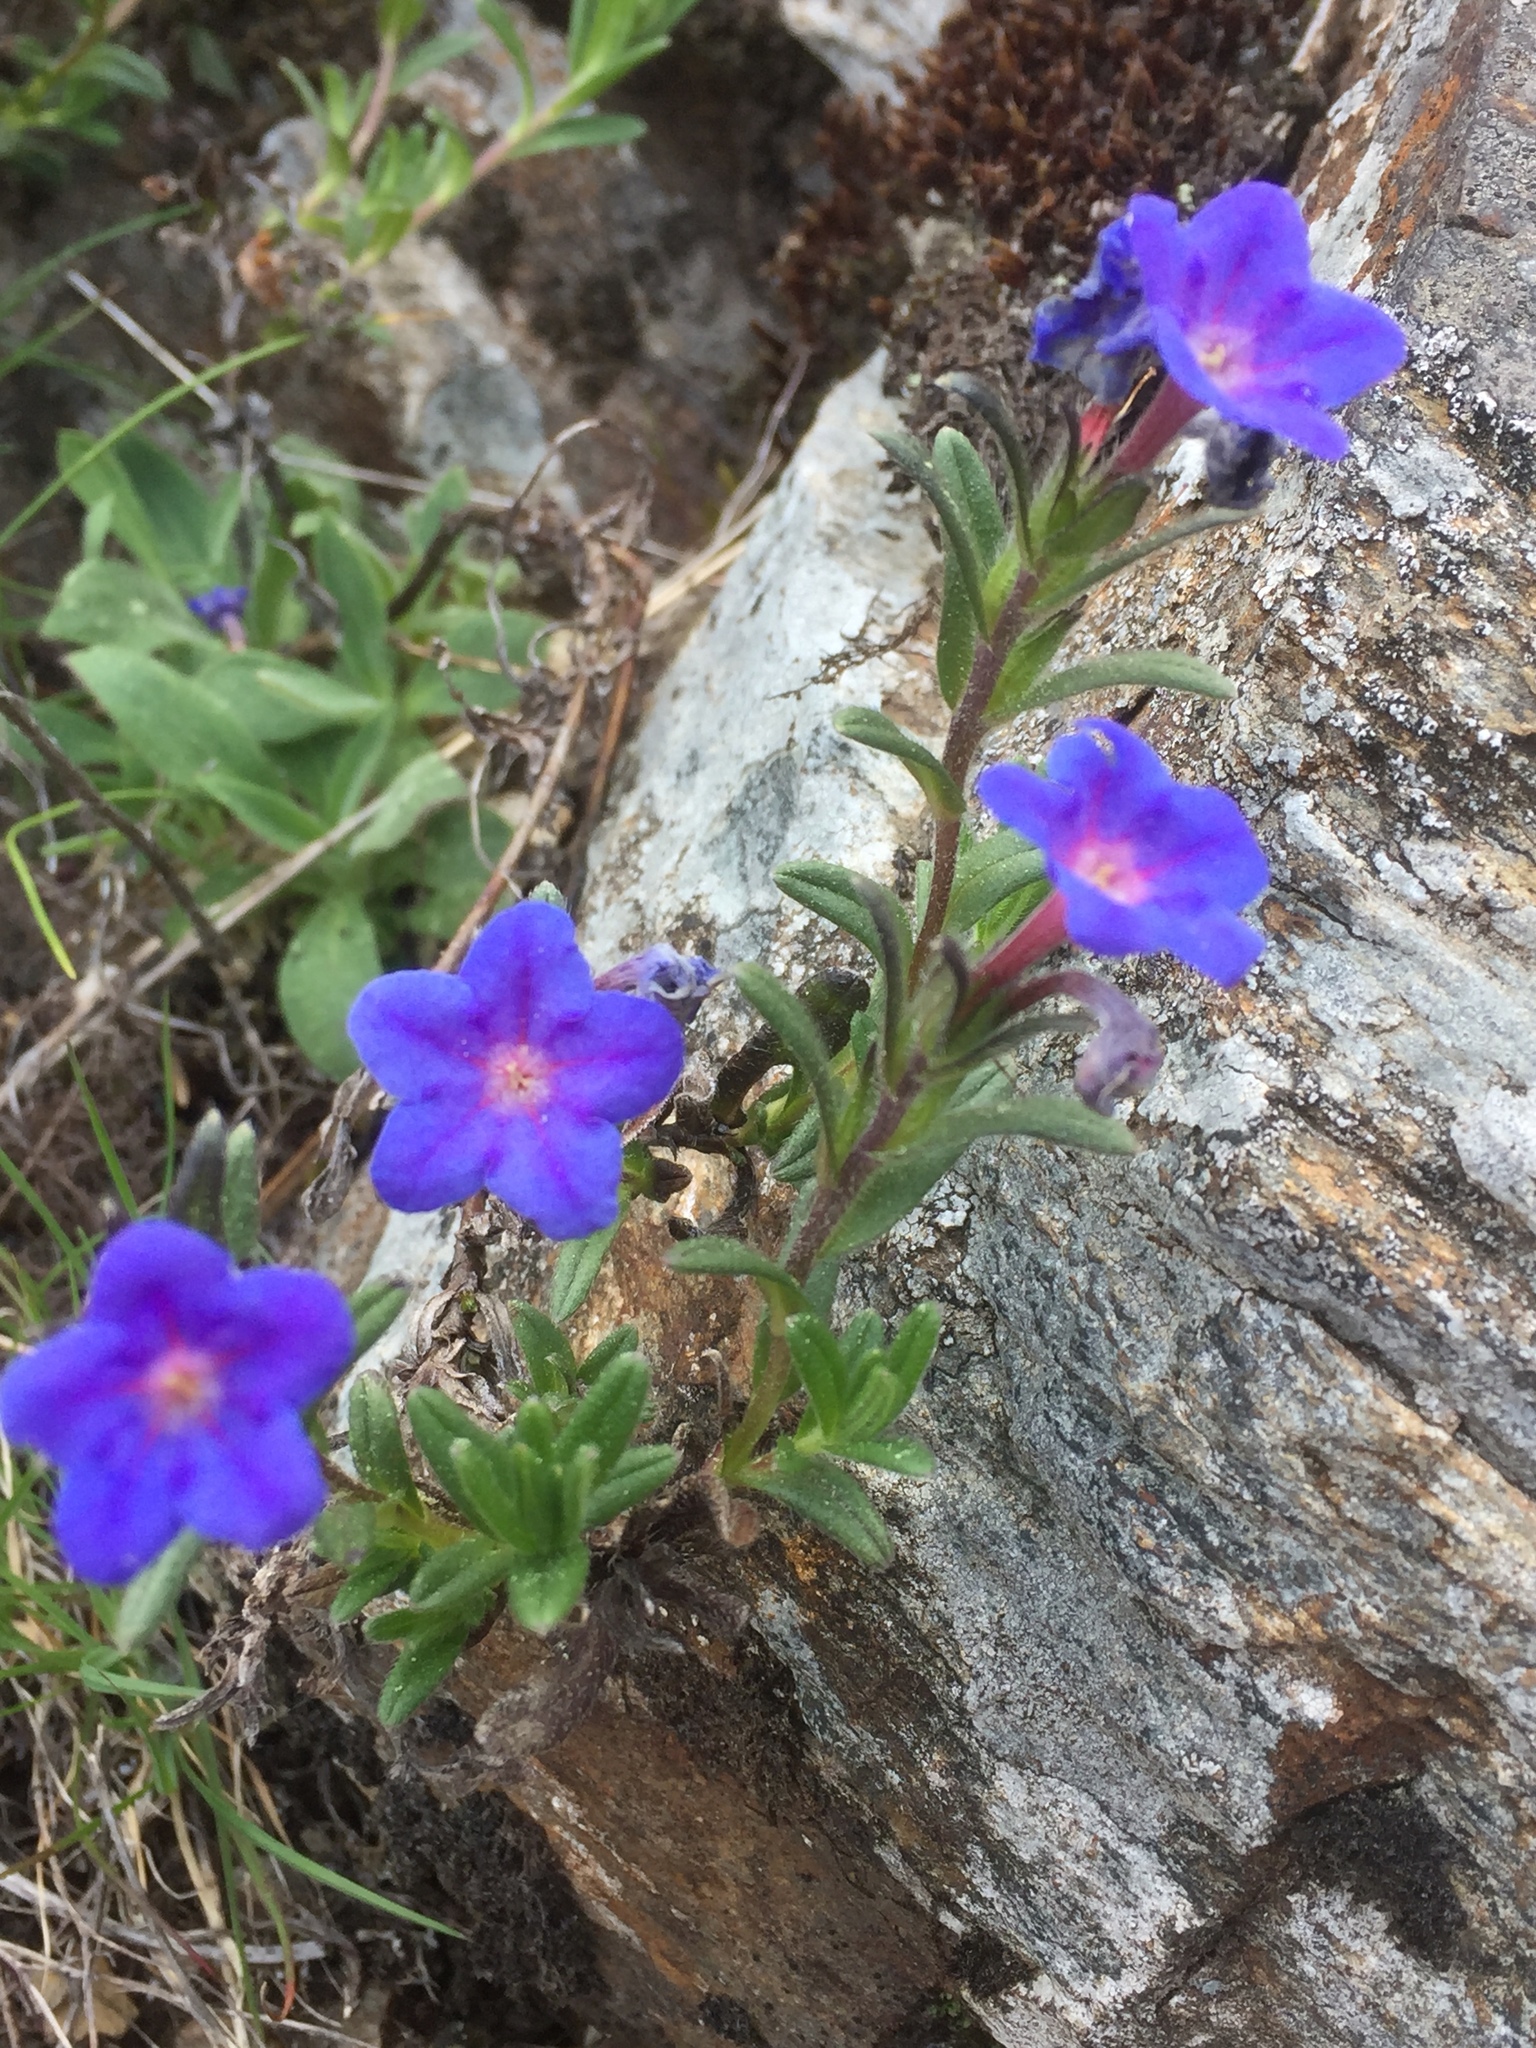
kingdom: Plantae
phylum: Tracheophyta
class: Magnoliopsida
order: Boraginales
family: Boraginaceae
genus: Glandora
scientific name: Glandora prostrata
